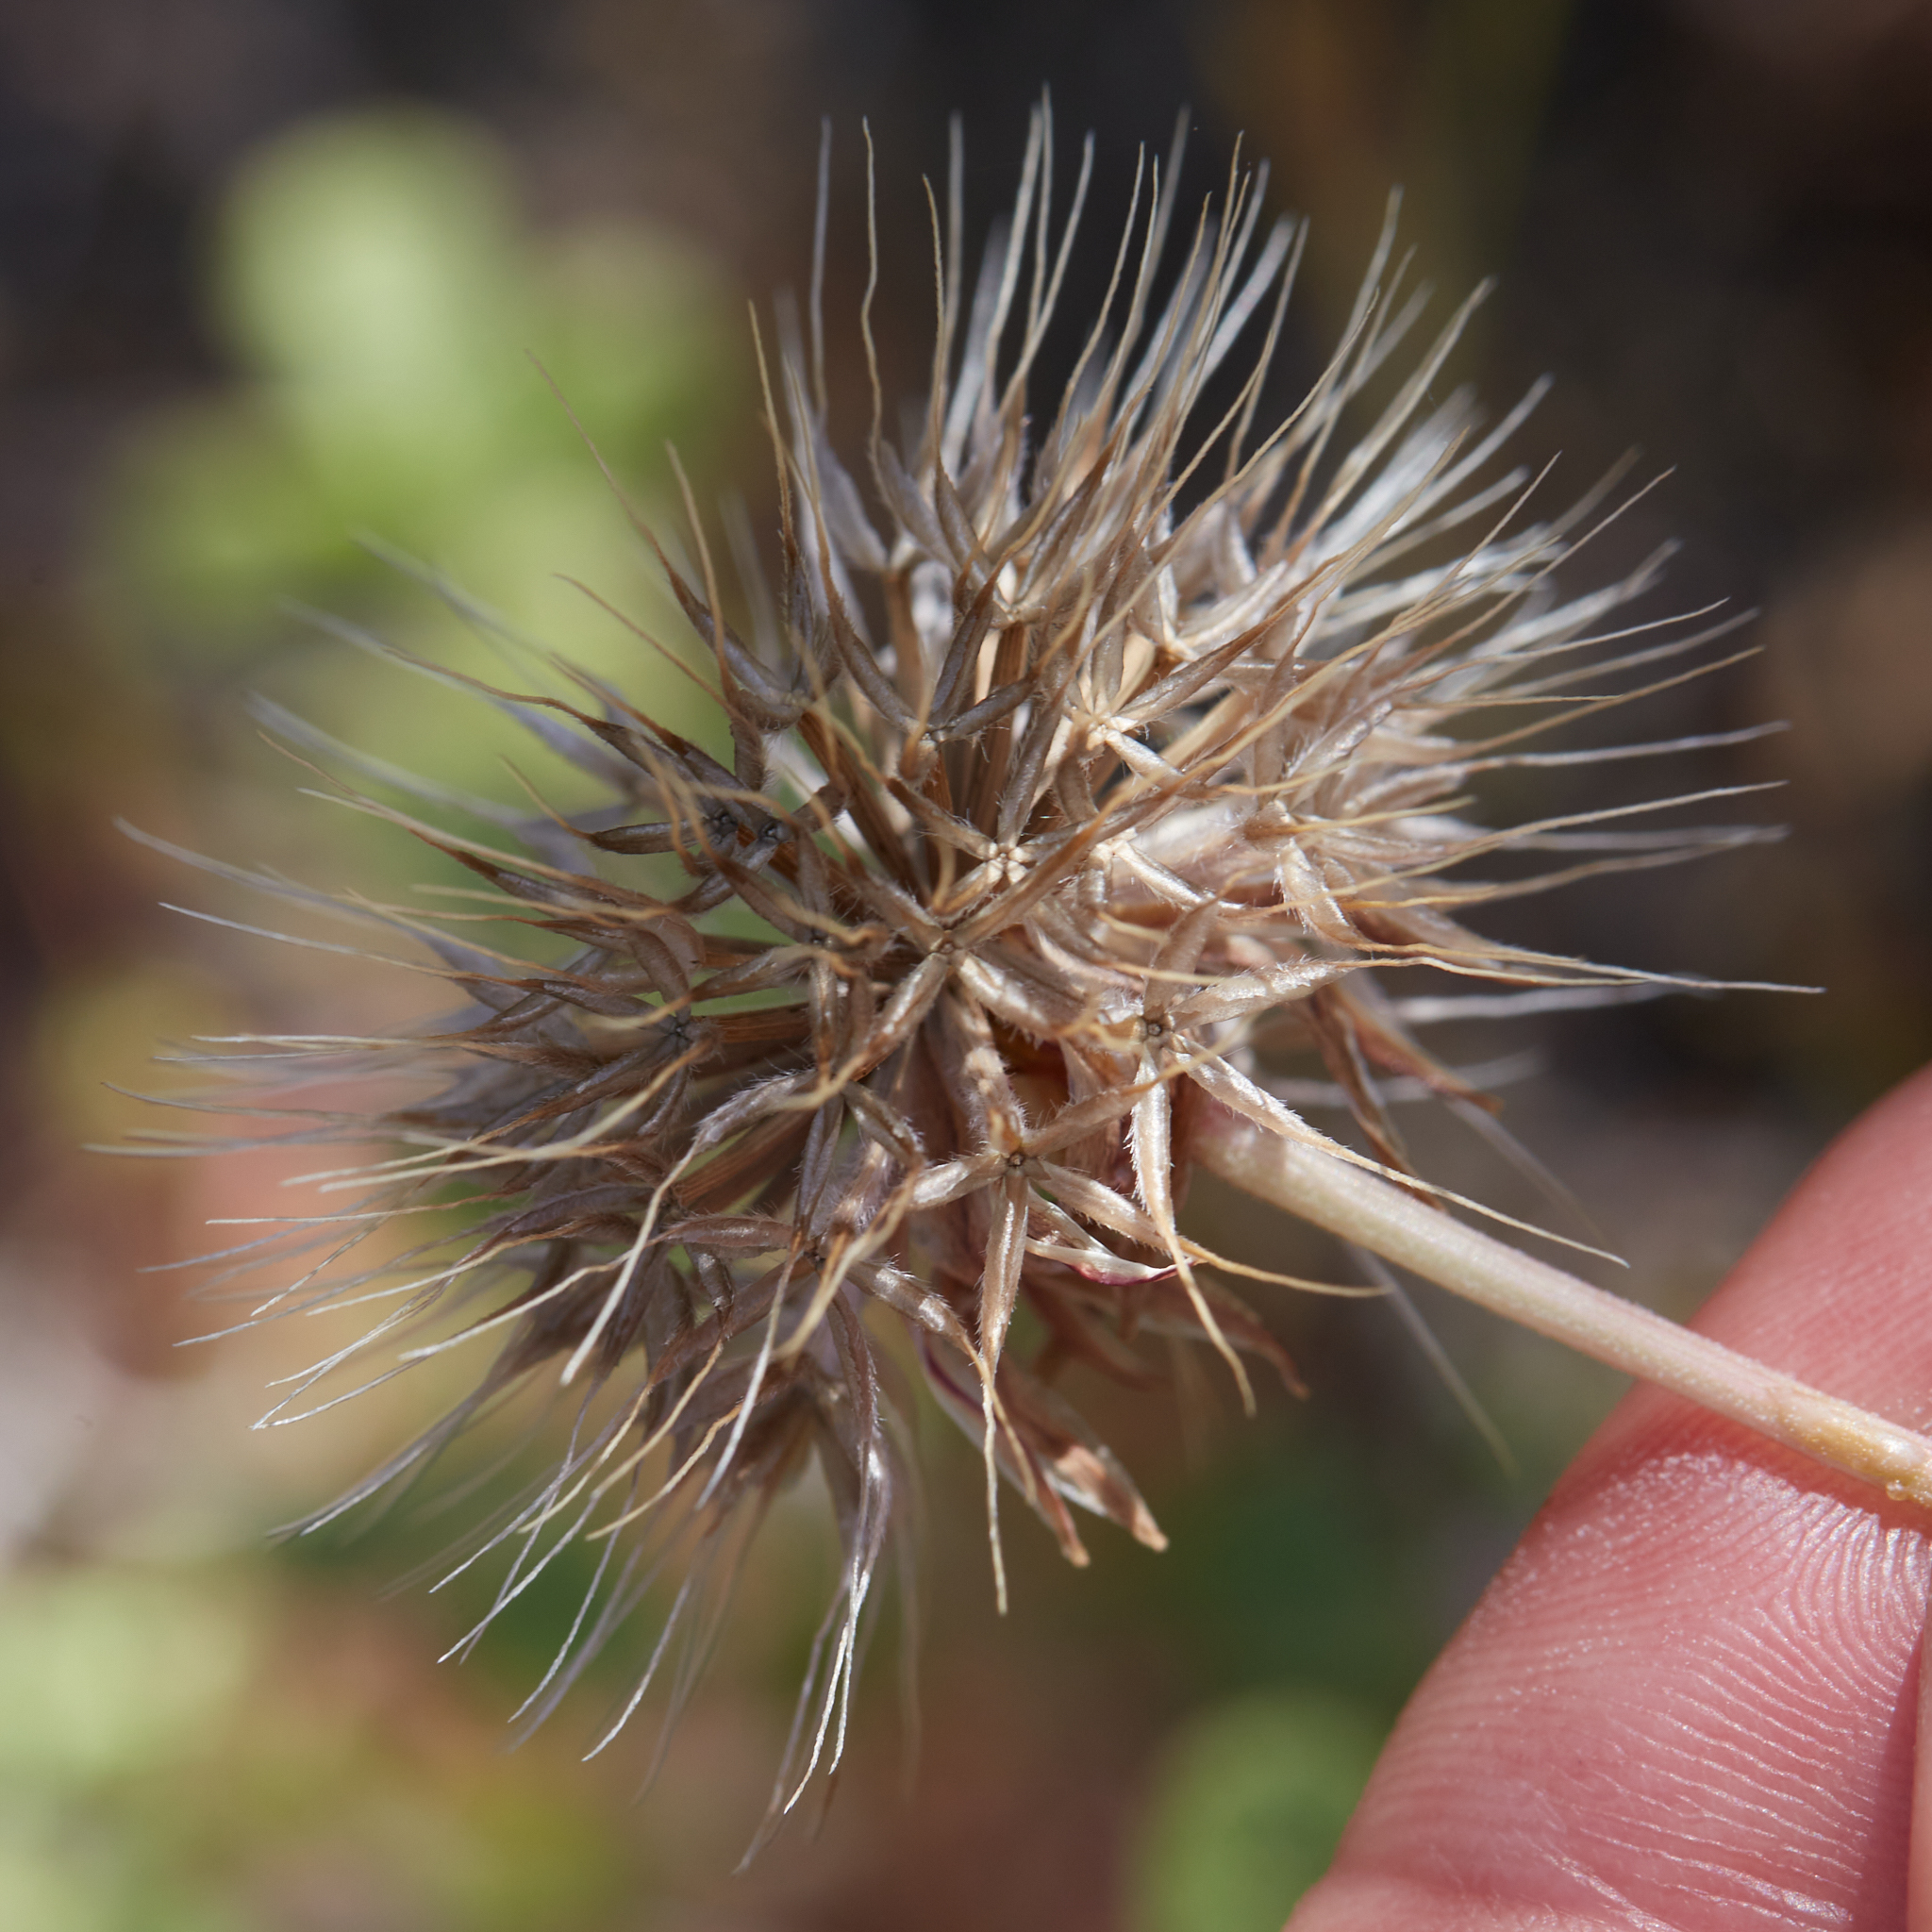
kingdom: Plantae
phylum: Tracheophyta
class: Magnoliopsida
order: Asterales
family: Asteraceae
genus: Microseris
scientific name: Microseris douglasii
